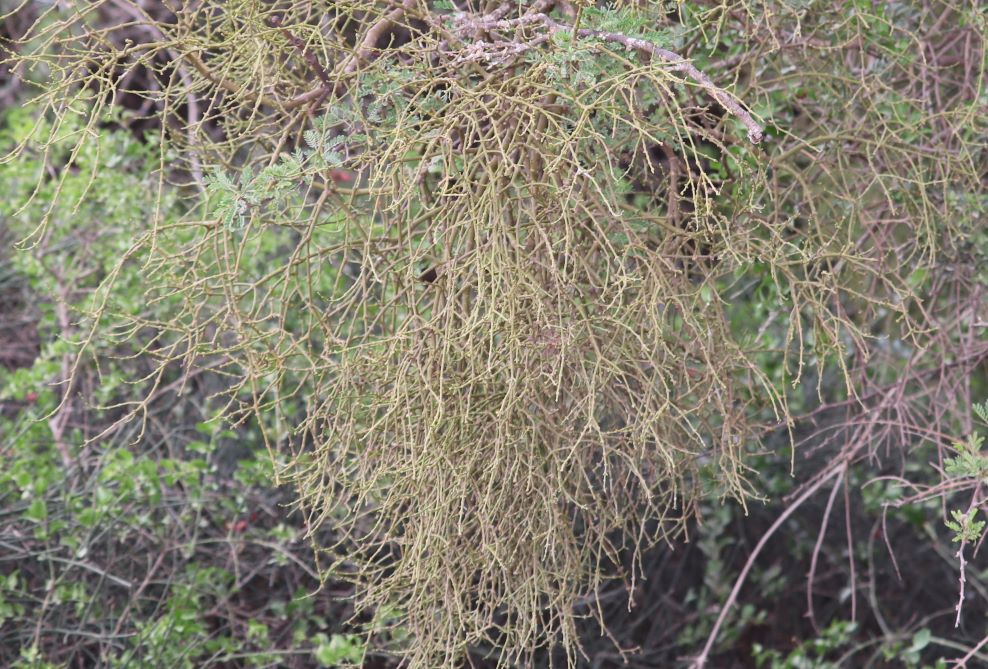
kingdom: Plantae
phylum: Tracheophyta
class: Magnoliopsida
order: Santalales
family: Viscaceae
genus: Viscum
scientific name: Viscum continuum
